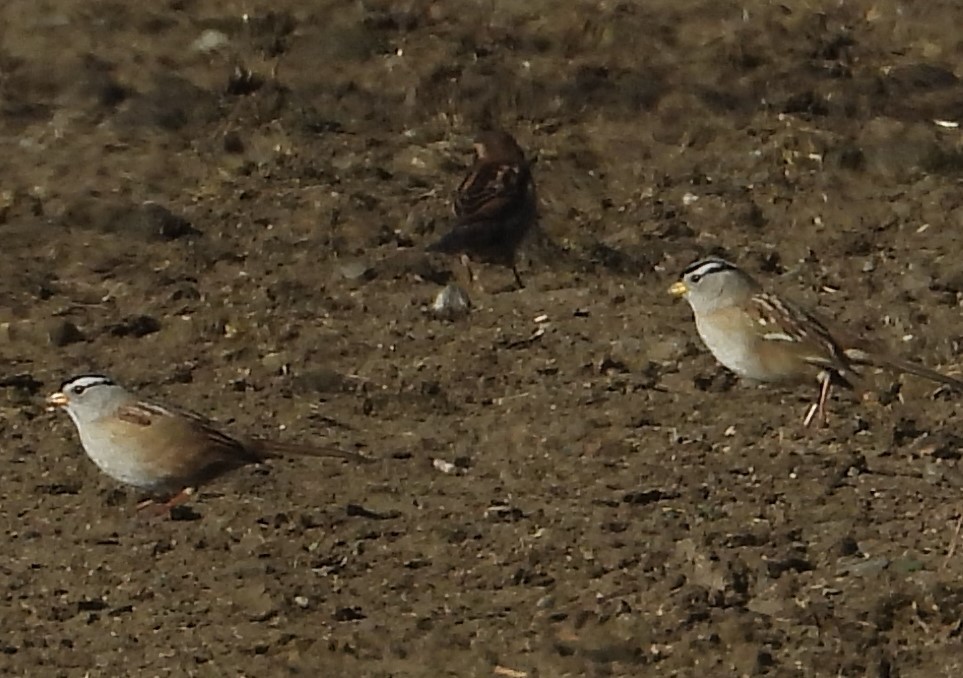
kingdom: Animalia
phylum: Chordata
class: Aves
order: Passeriformes
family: Passerellidae
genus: Zonotrichia
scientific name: Zonotrichia leucophrys
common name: White-crowned sparrow
